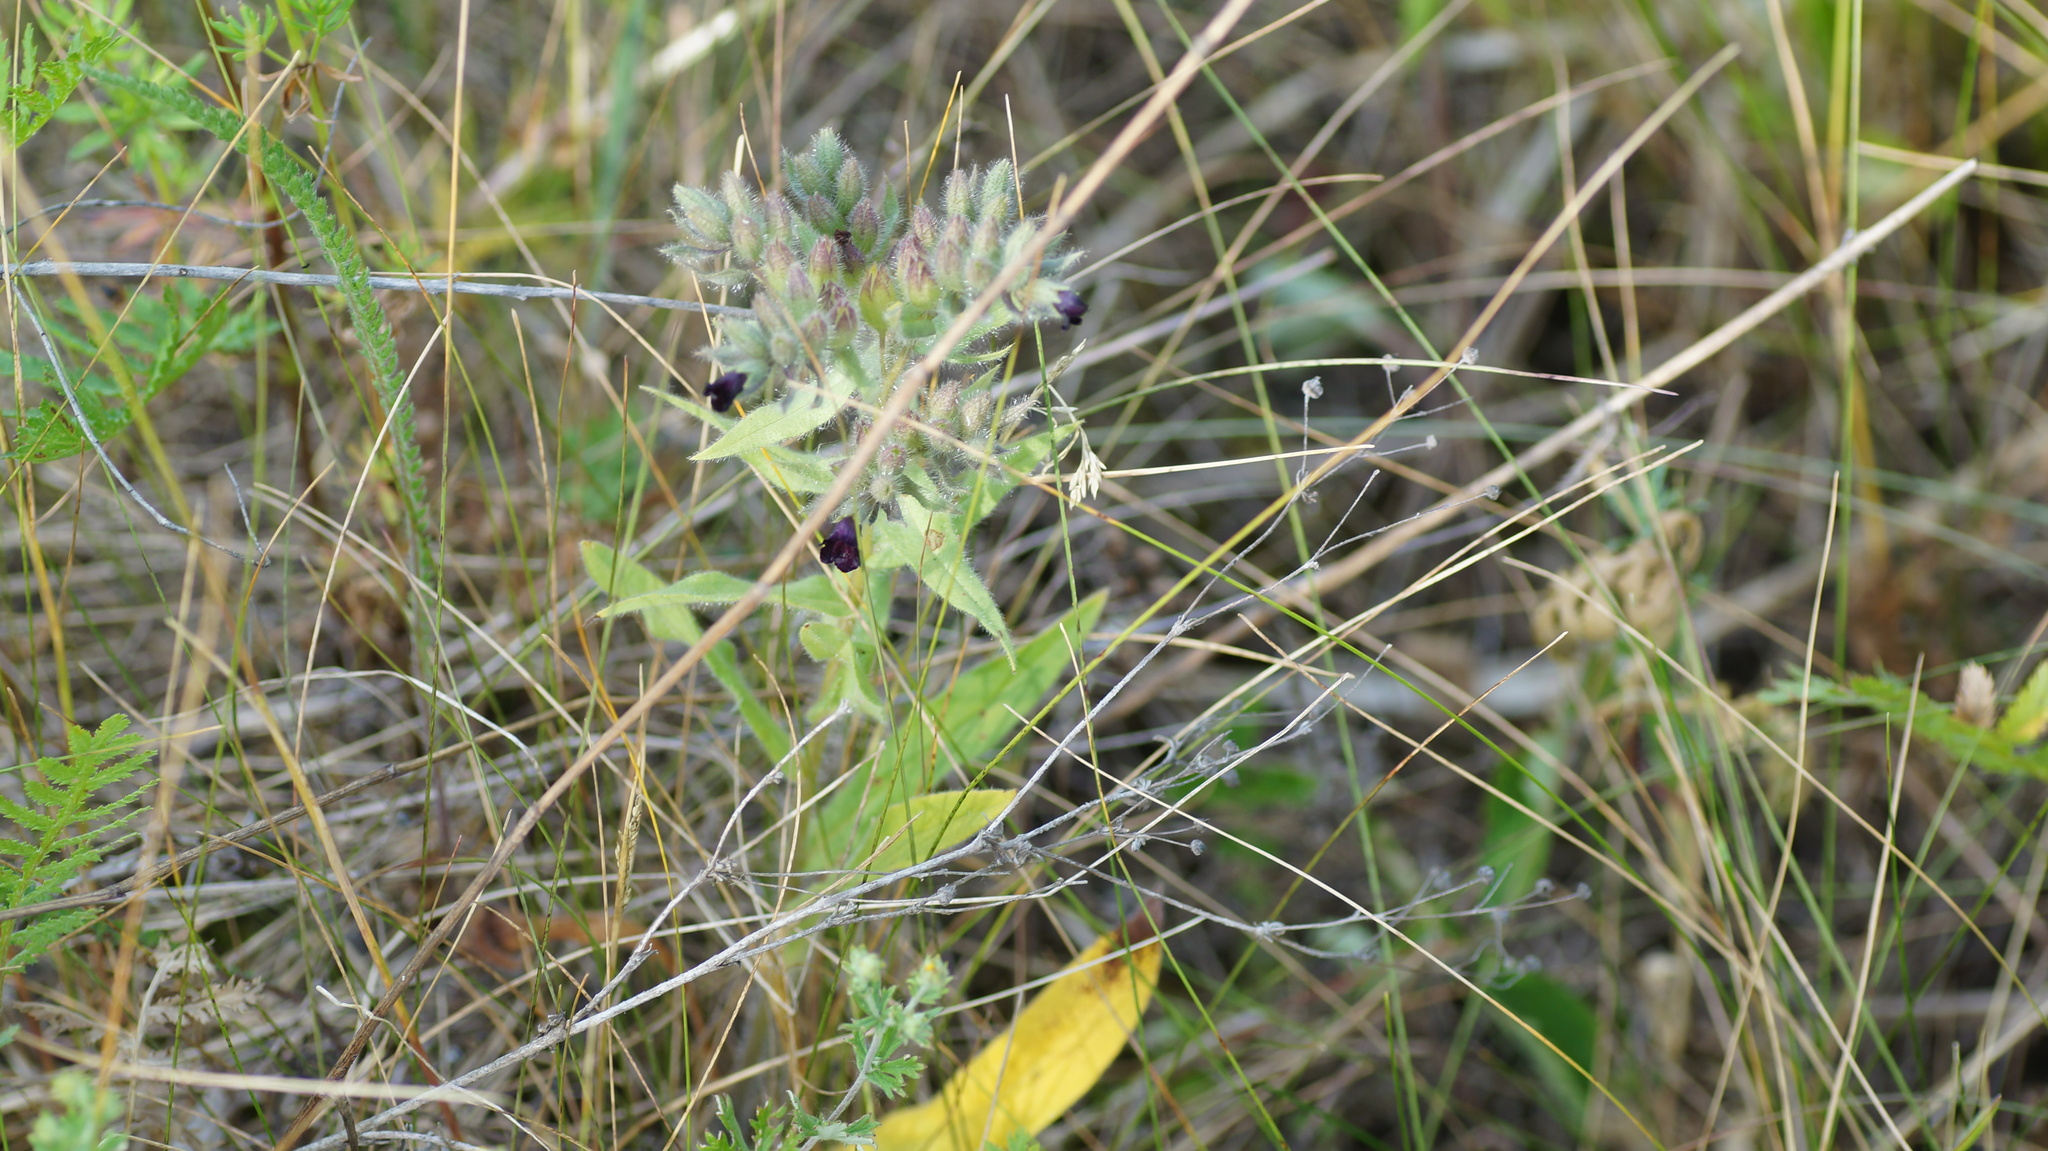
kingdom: Plantae
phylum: Tracheophyta
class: Magnoliopsida
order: Boraginales
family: Boraginaceae
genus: Nonea
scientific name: Nonea pulla
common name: Brown nonea
